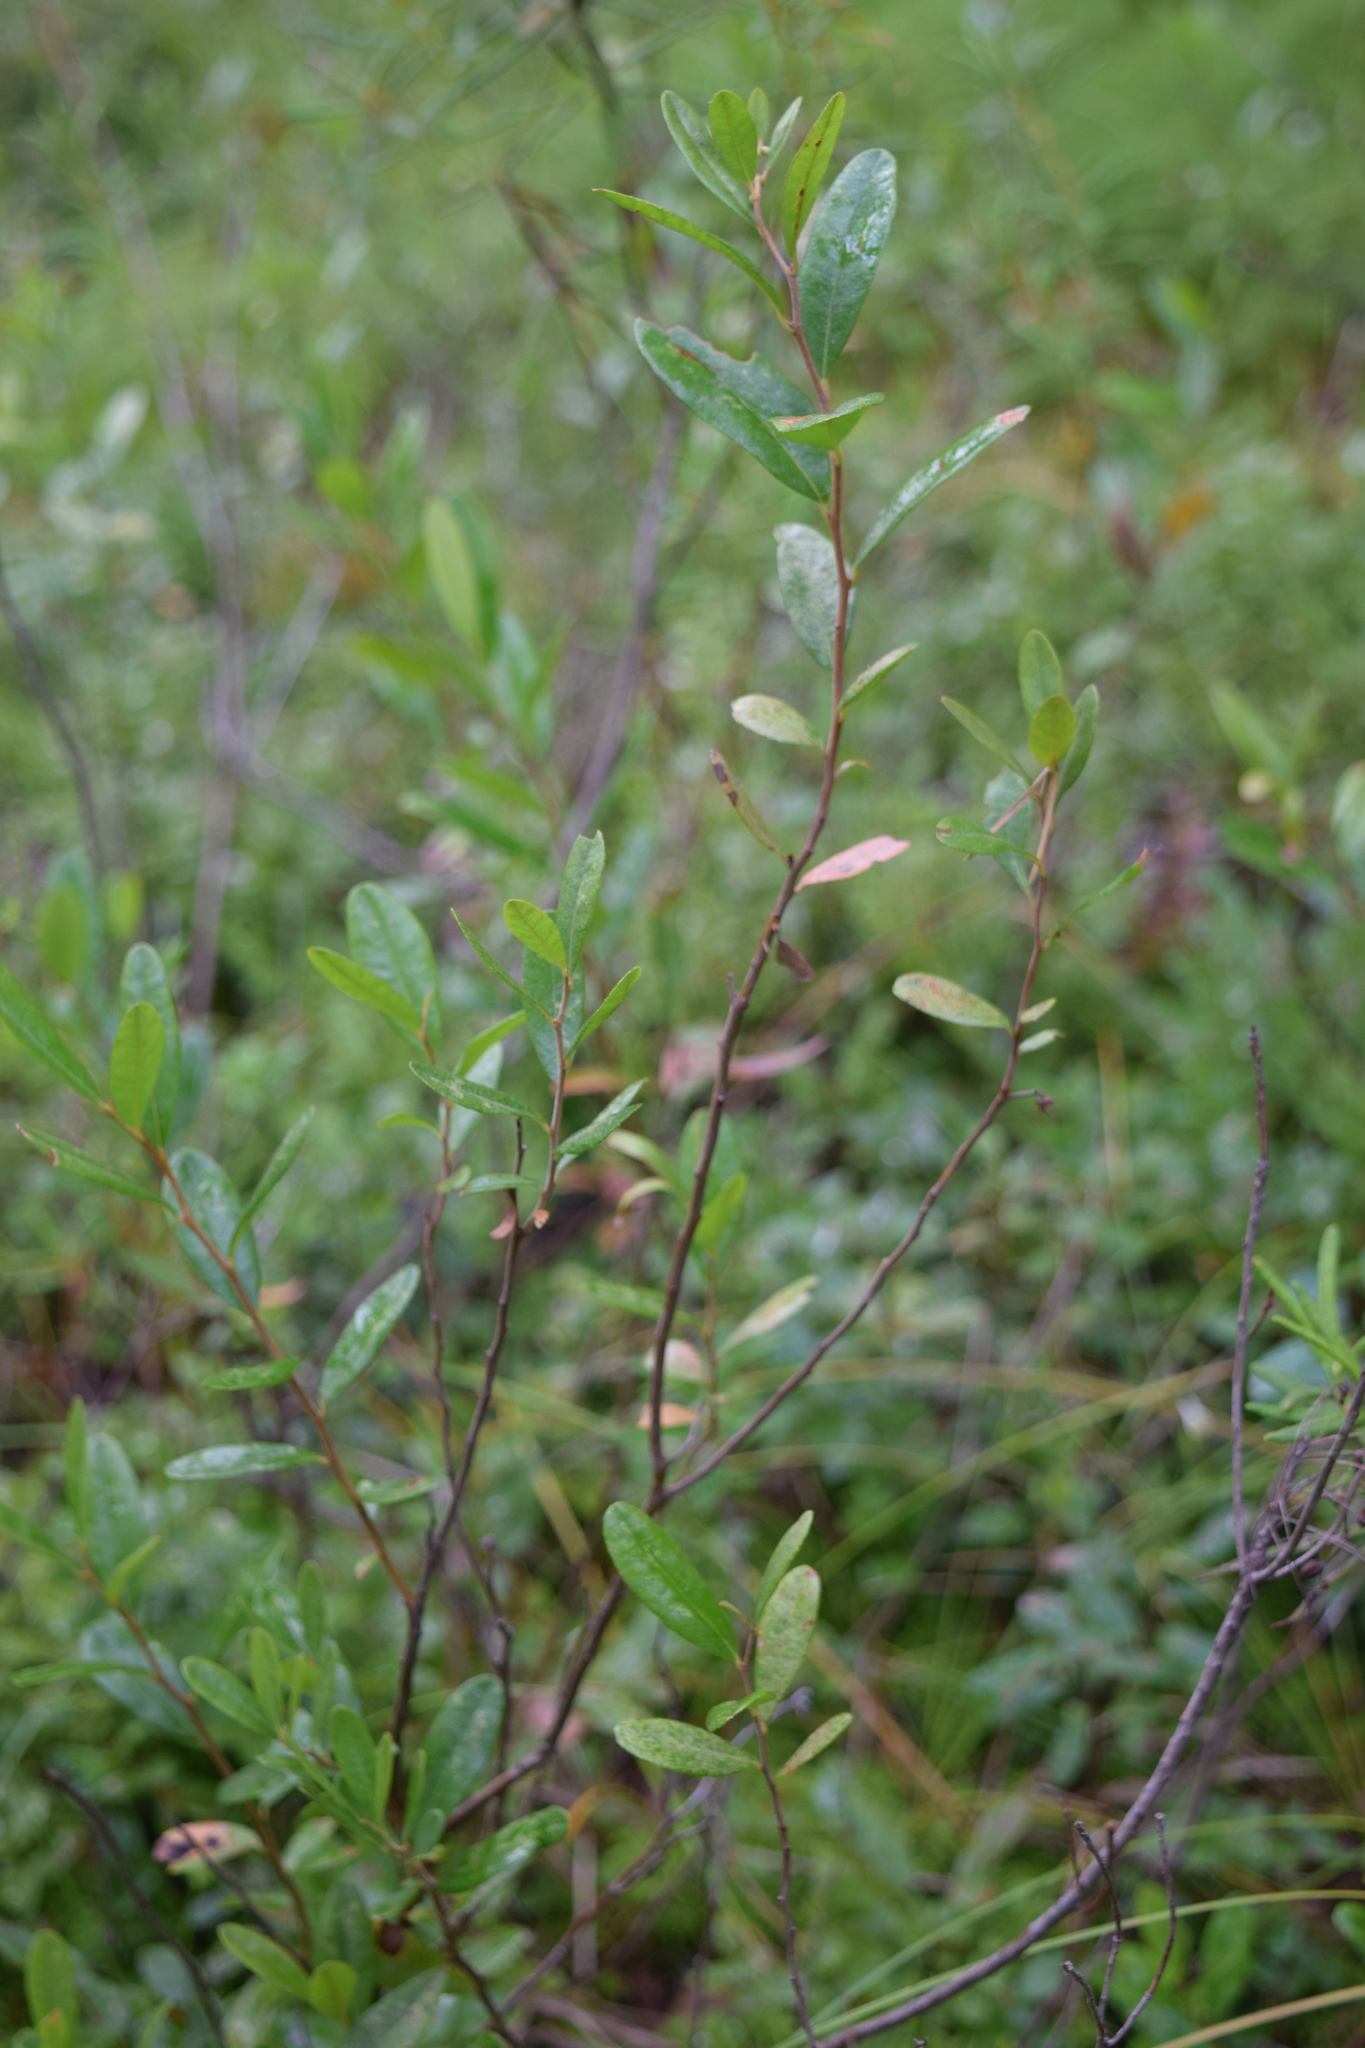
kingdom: Plantae
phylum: Tracheophyta
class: Magnoliopsida
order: Ericales
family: Ericaceae
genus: Chamaedaphne
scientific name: Chamaedaphne calyculata
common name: Leatherleaf
